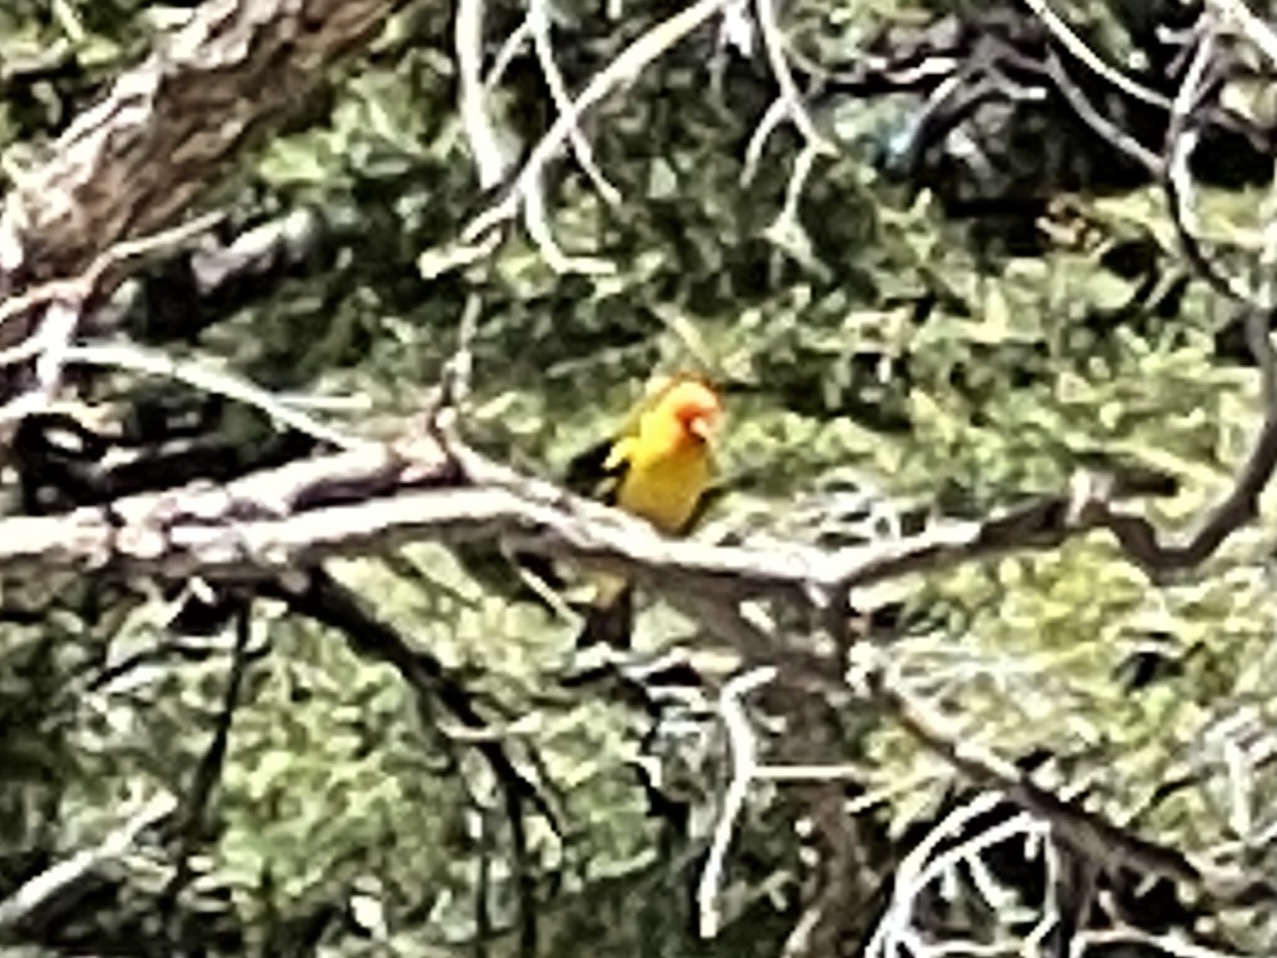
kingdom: Animalia
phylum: Chordata
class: Aves
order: Passeriformes
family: Cardinalidae
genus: Piranga
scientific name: Piranga ludoviciana
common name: Western tanager
